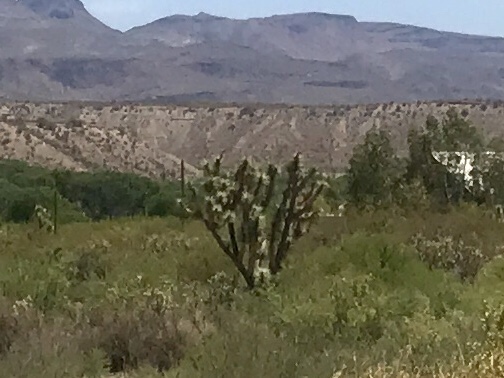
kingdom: Plantae
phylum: Tracheophyta
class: Liliopsida
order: Asparagales
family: Asparagaceae
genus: Yucca
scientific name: Yucca brevifolia
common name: Joshua tree
